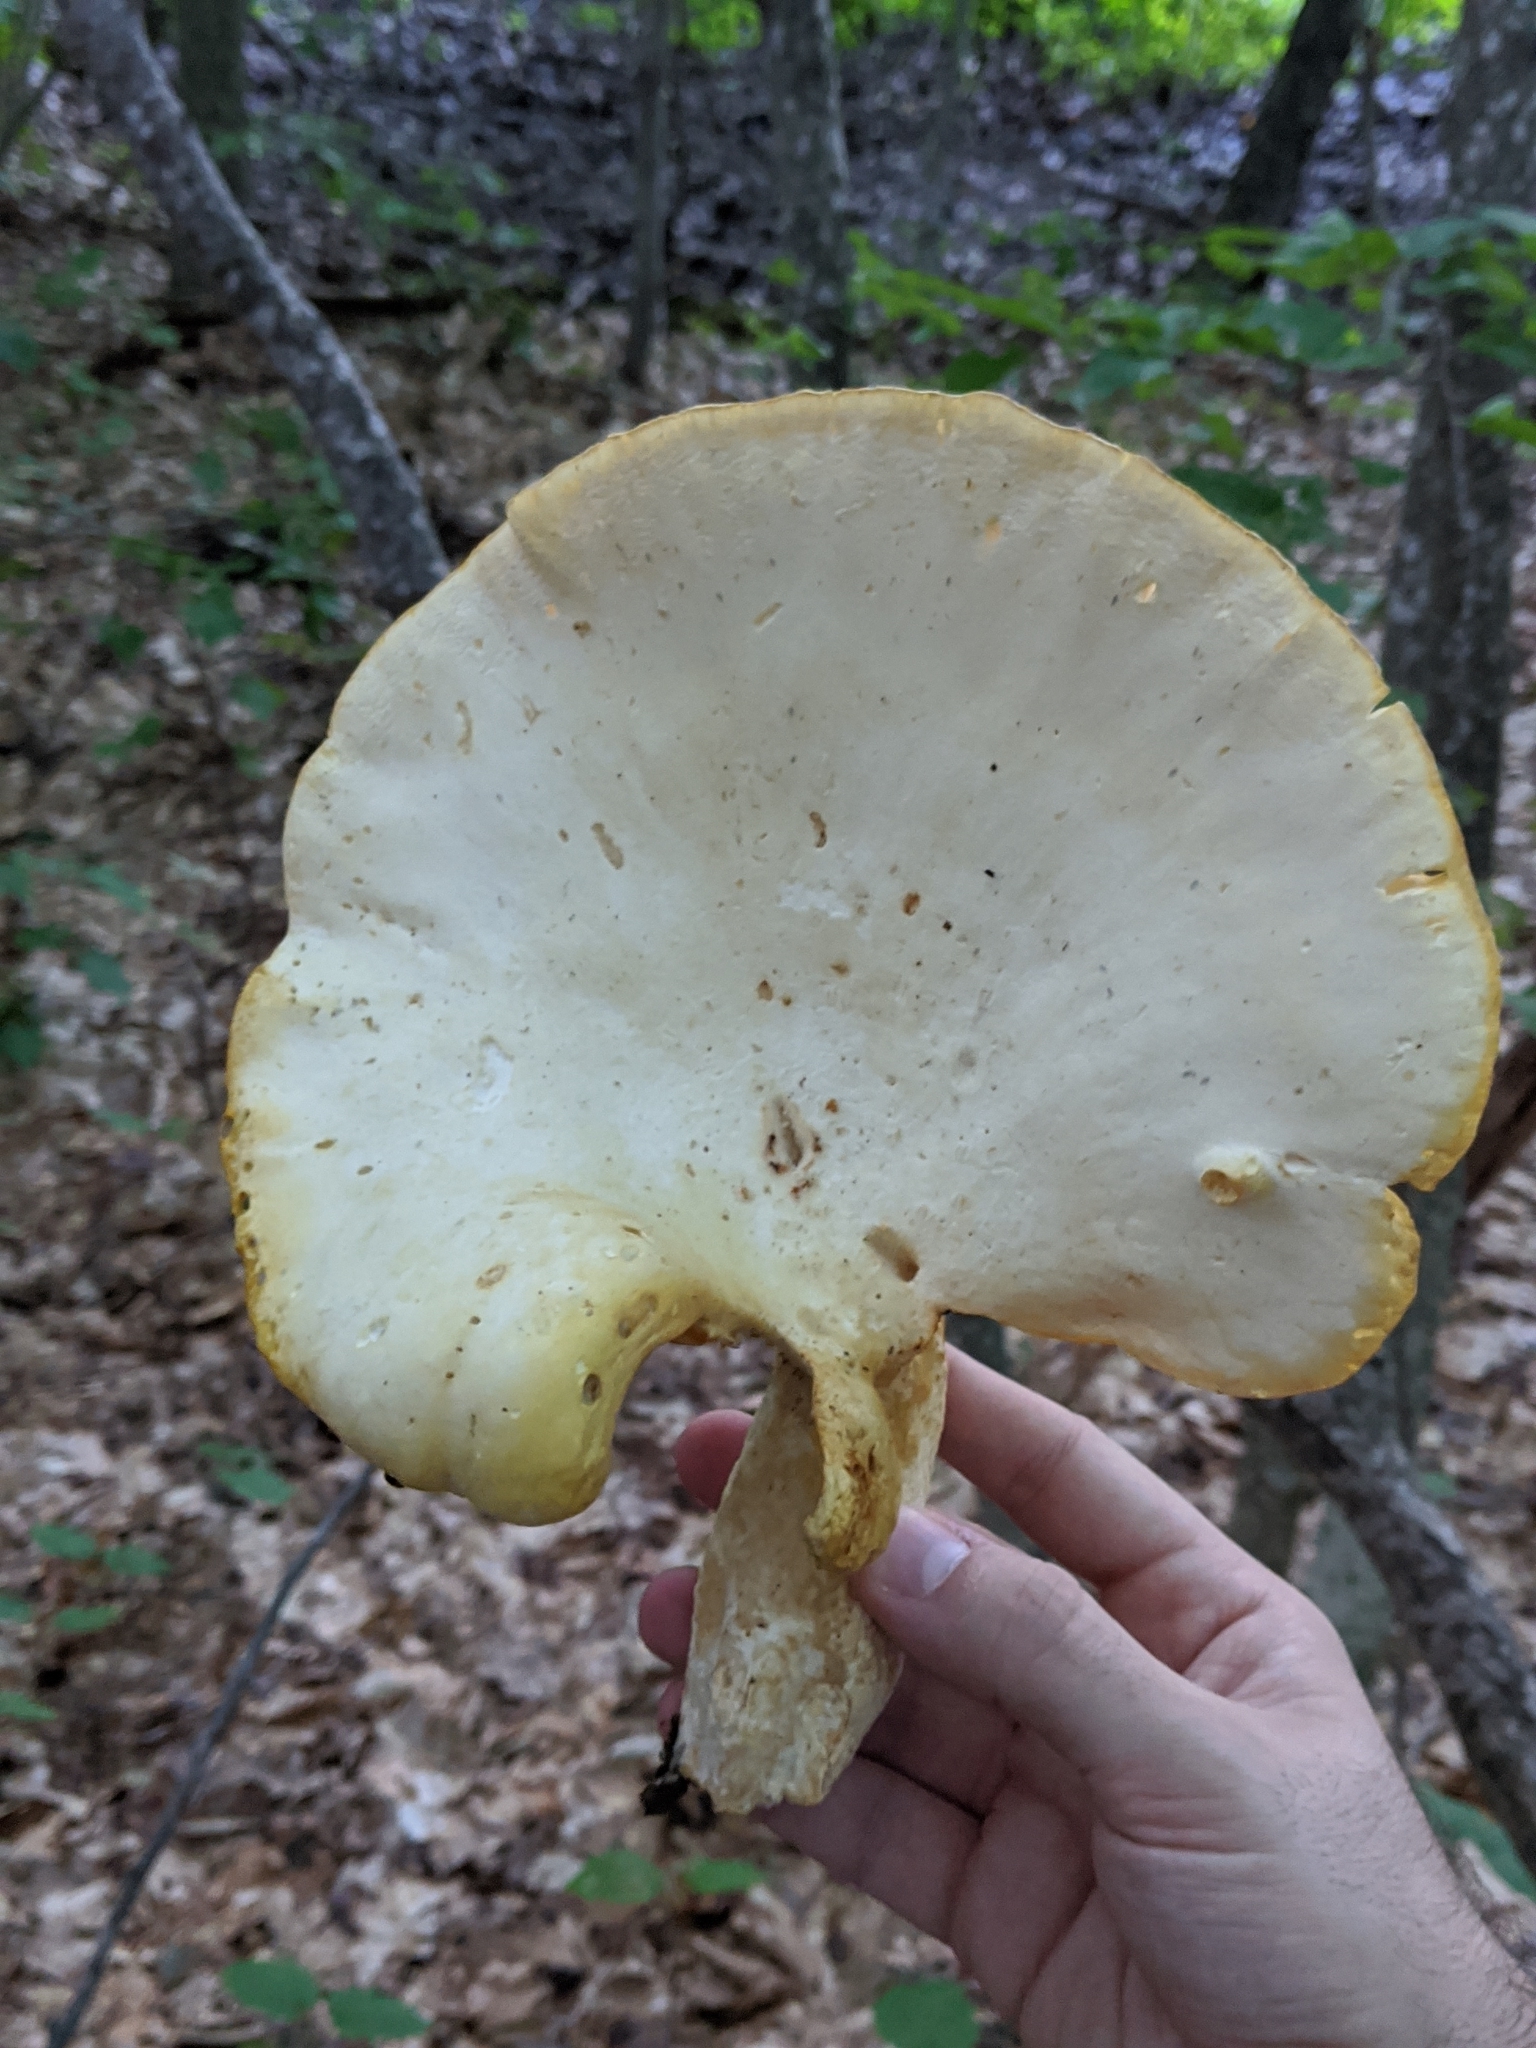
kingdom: Fungi
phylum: Basidiomycota
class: Agaricomycetes
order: Polyporales
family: Polyporaceae
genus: Lentinus
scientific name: Lentinus levis
